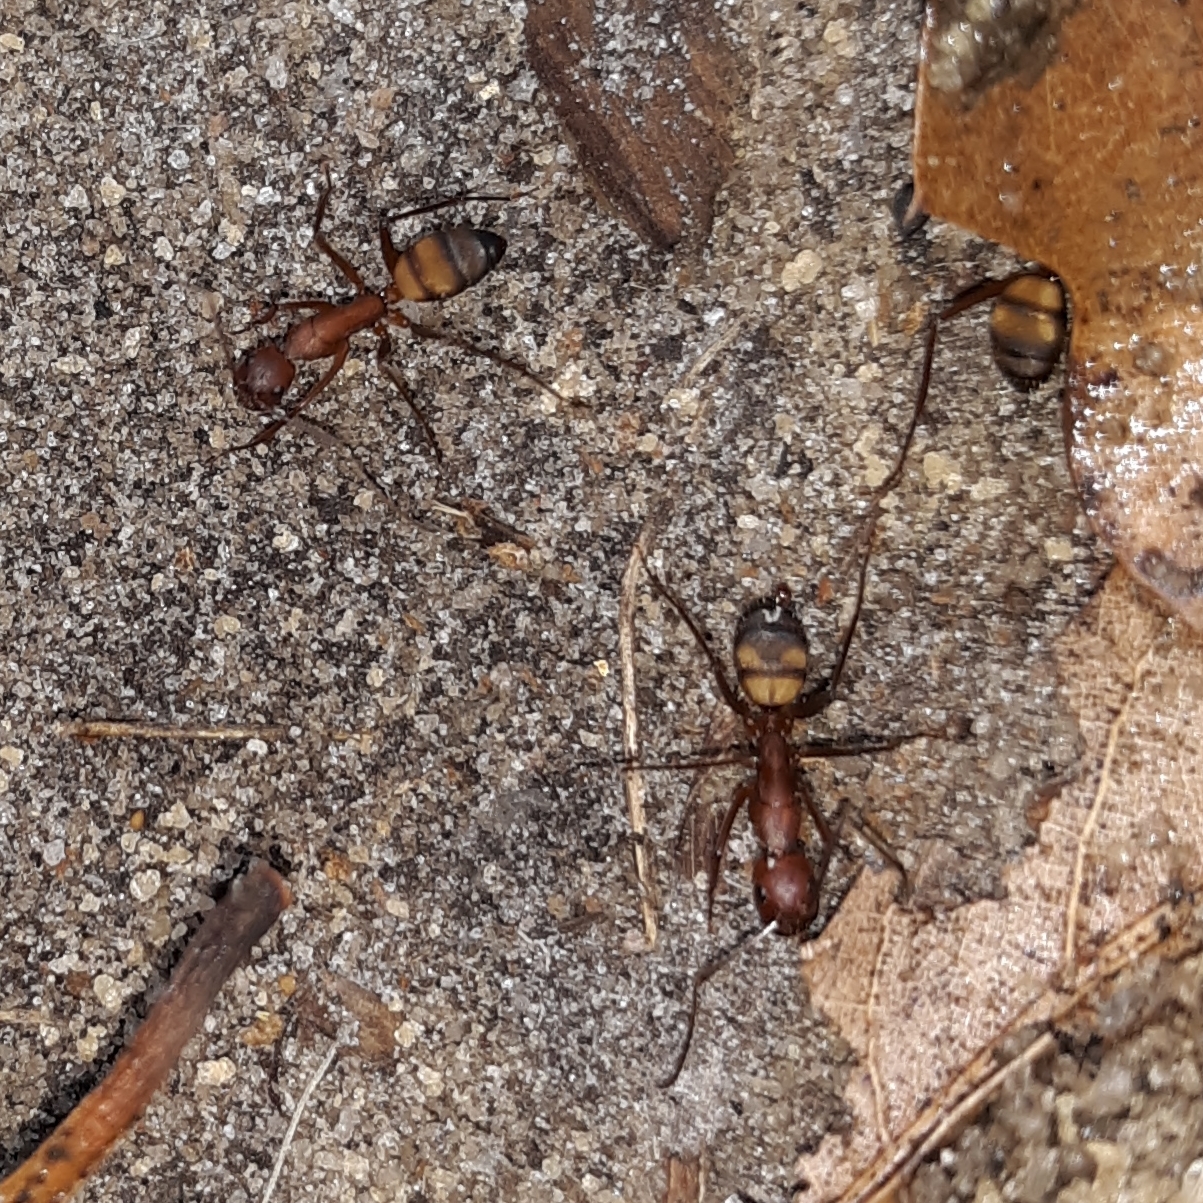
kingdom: Animalia
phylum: Arthropoda
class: Insecta
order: Hymenoptera
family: Formicidae
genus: Camponotus
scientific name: Camponotus socius
